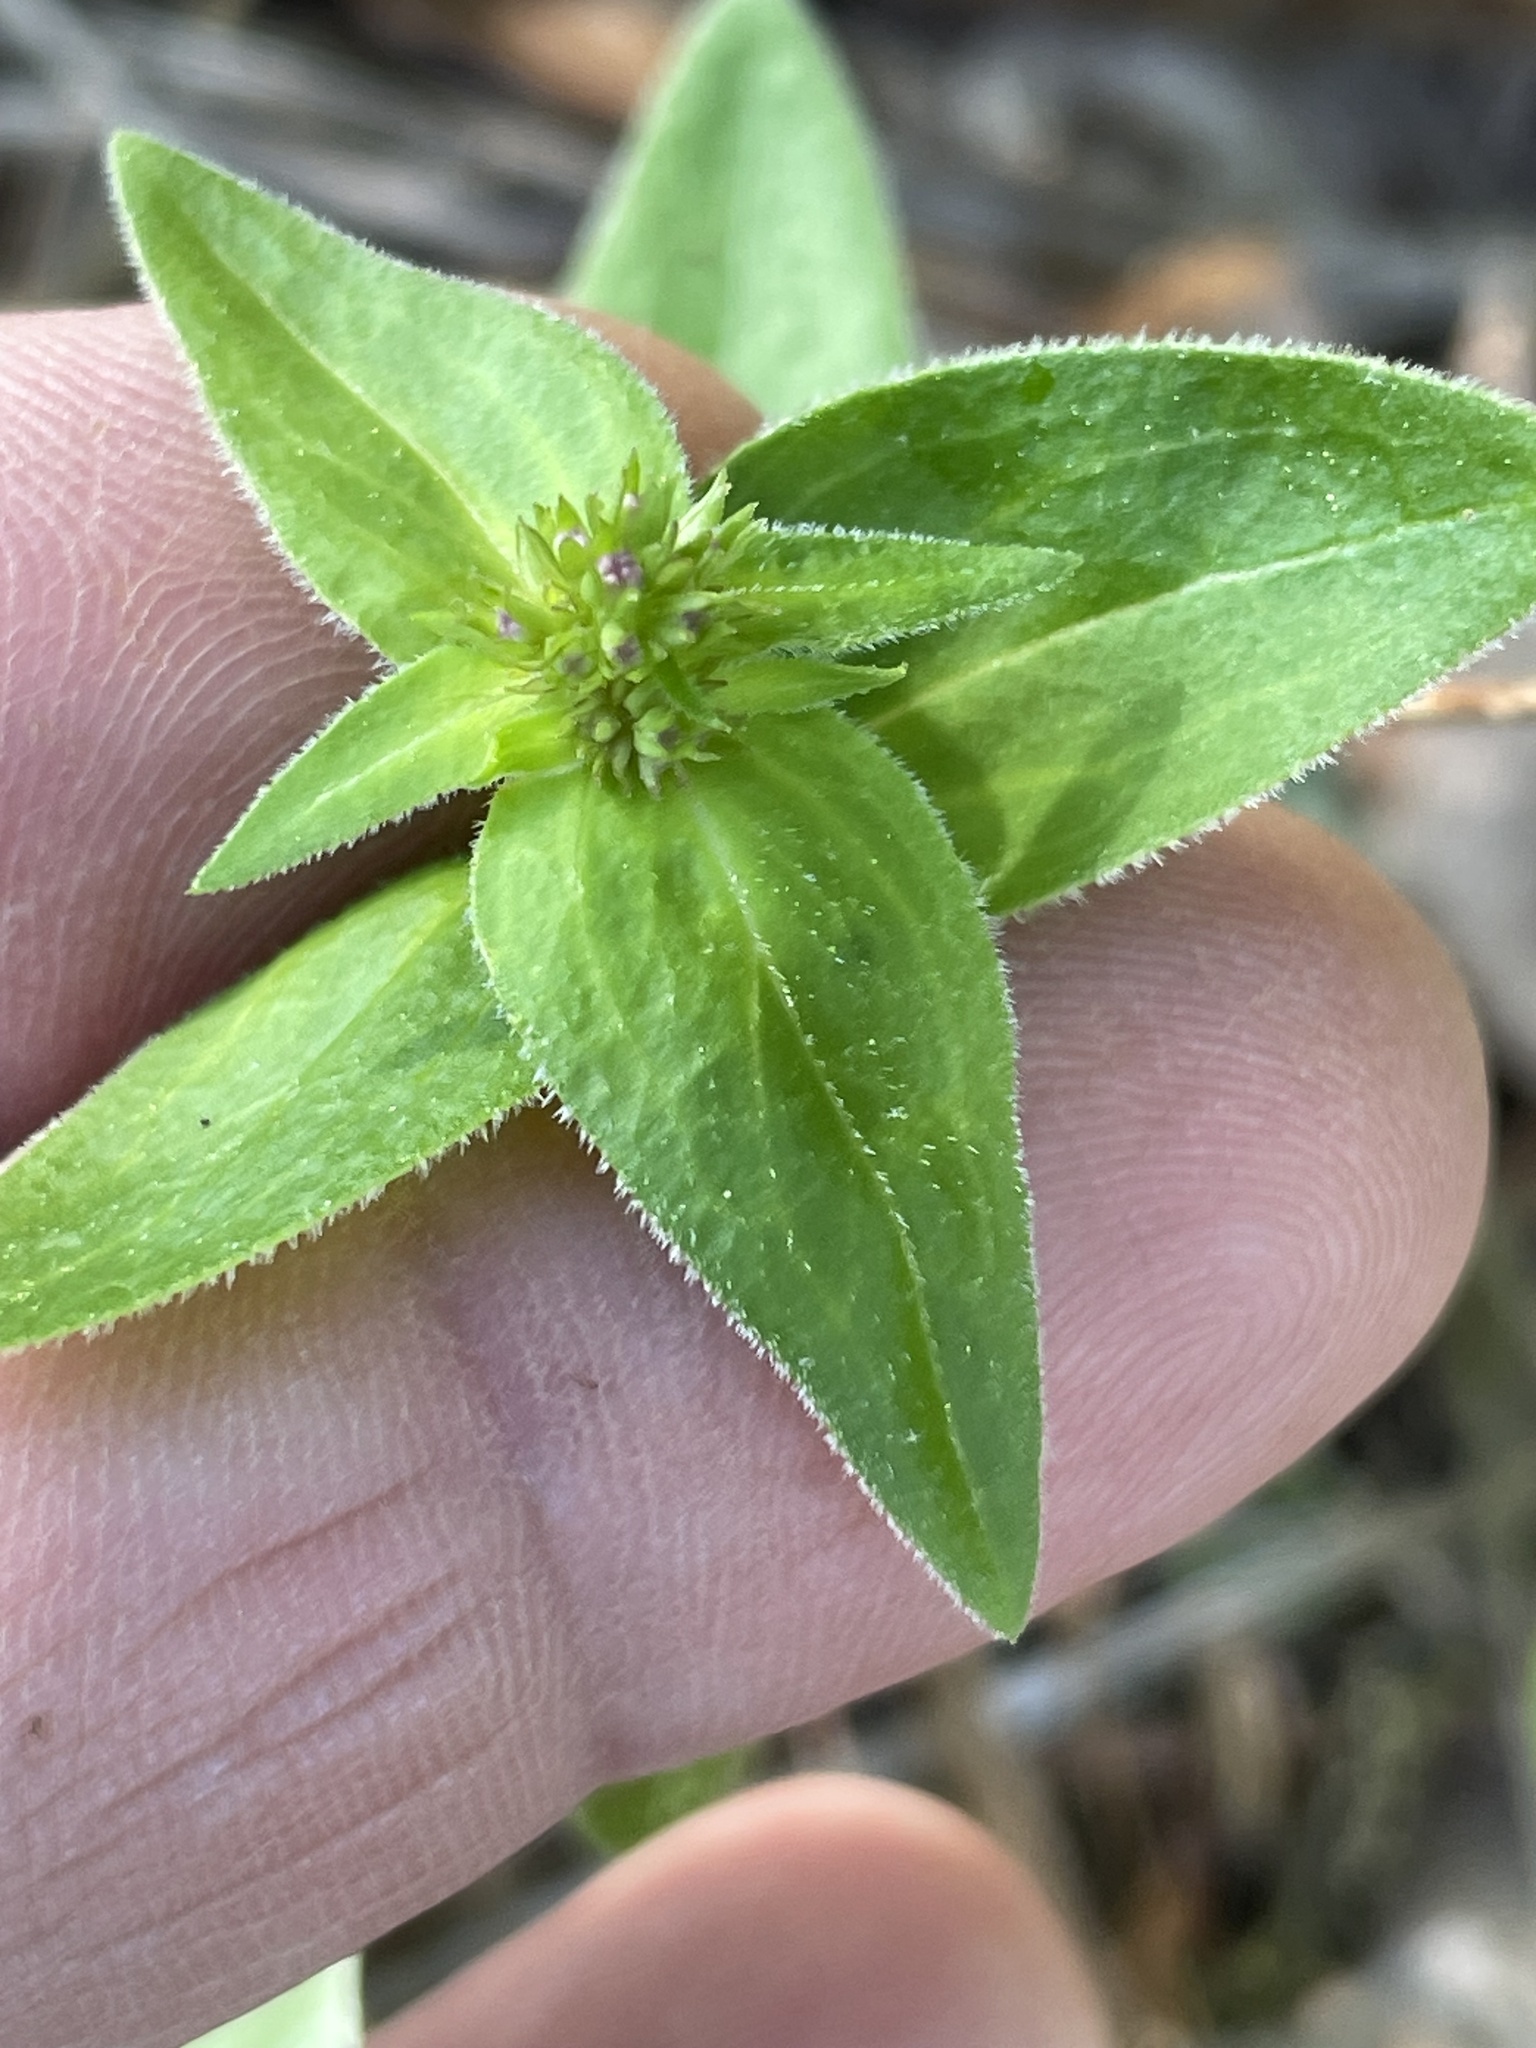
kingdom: Plantae
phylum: Tracheophyta
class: Magnoliopsida
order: Gentianales
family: Rubiaceae
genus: Houstonia
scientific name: Houstonia purpurea
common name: Summer bluet
